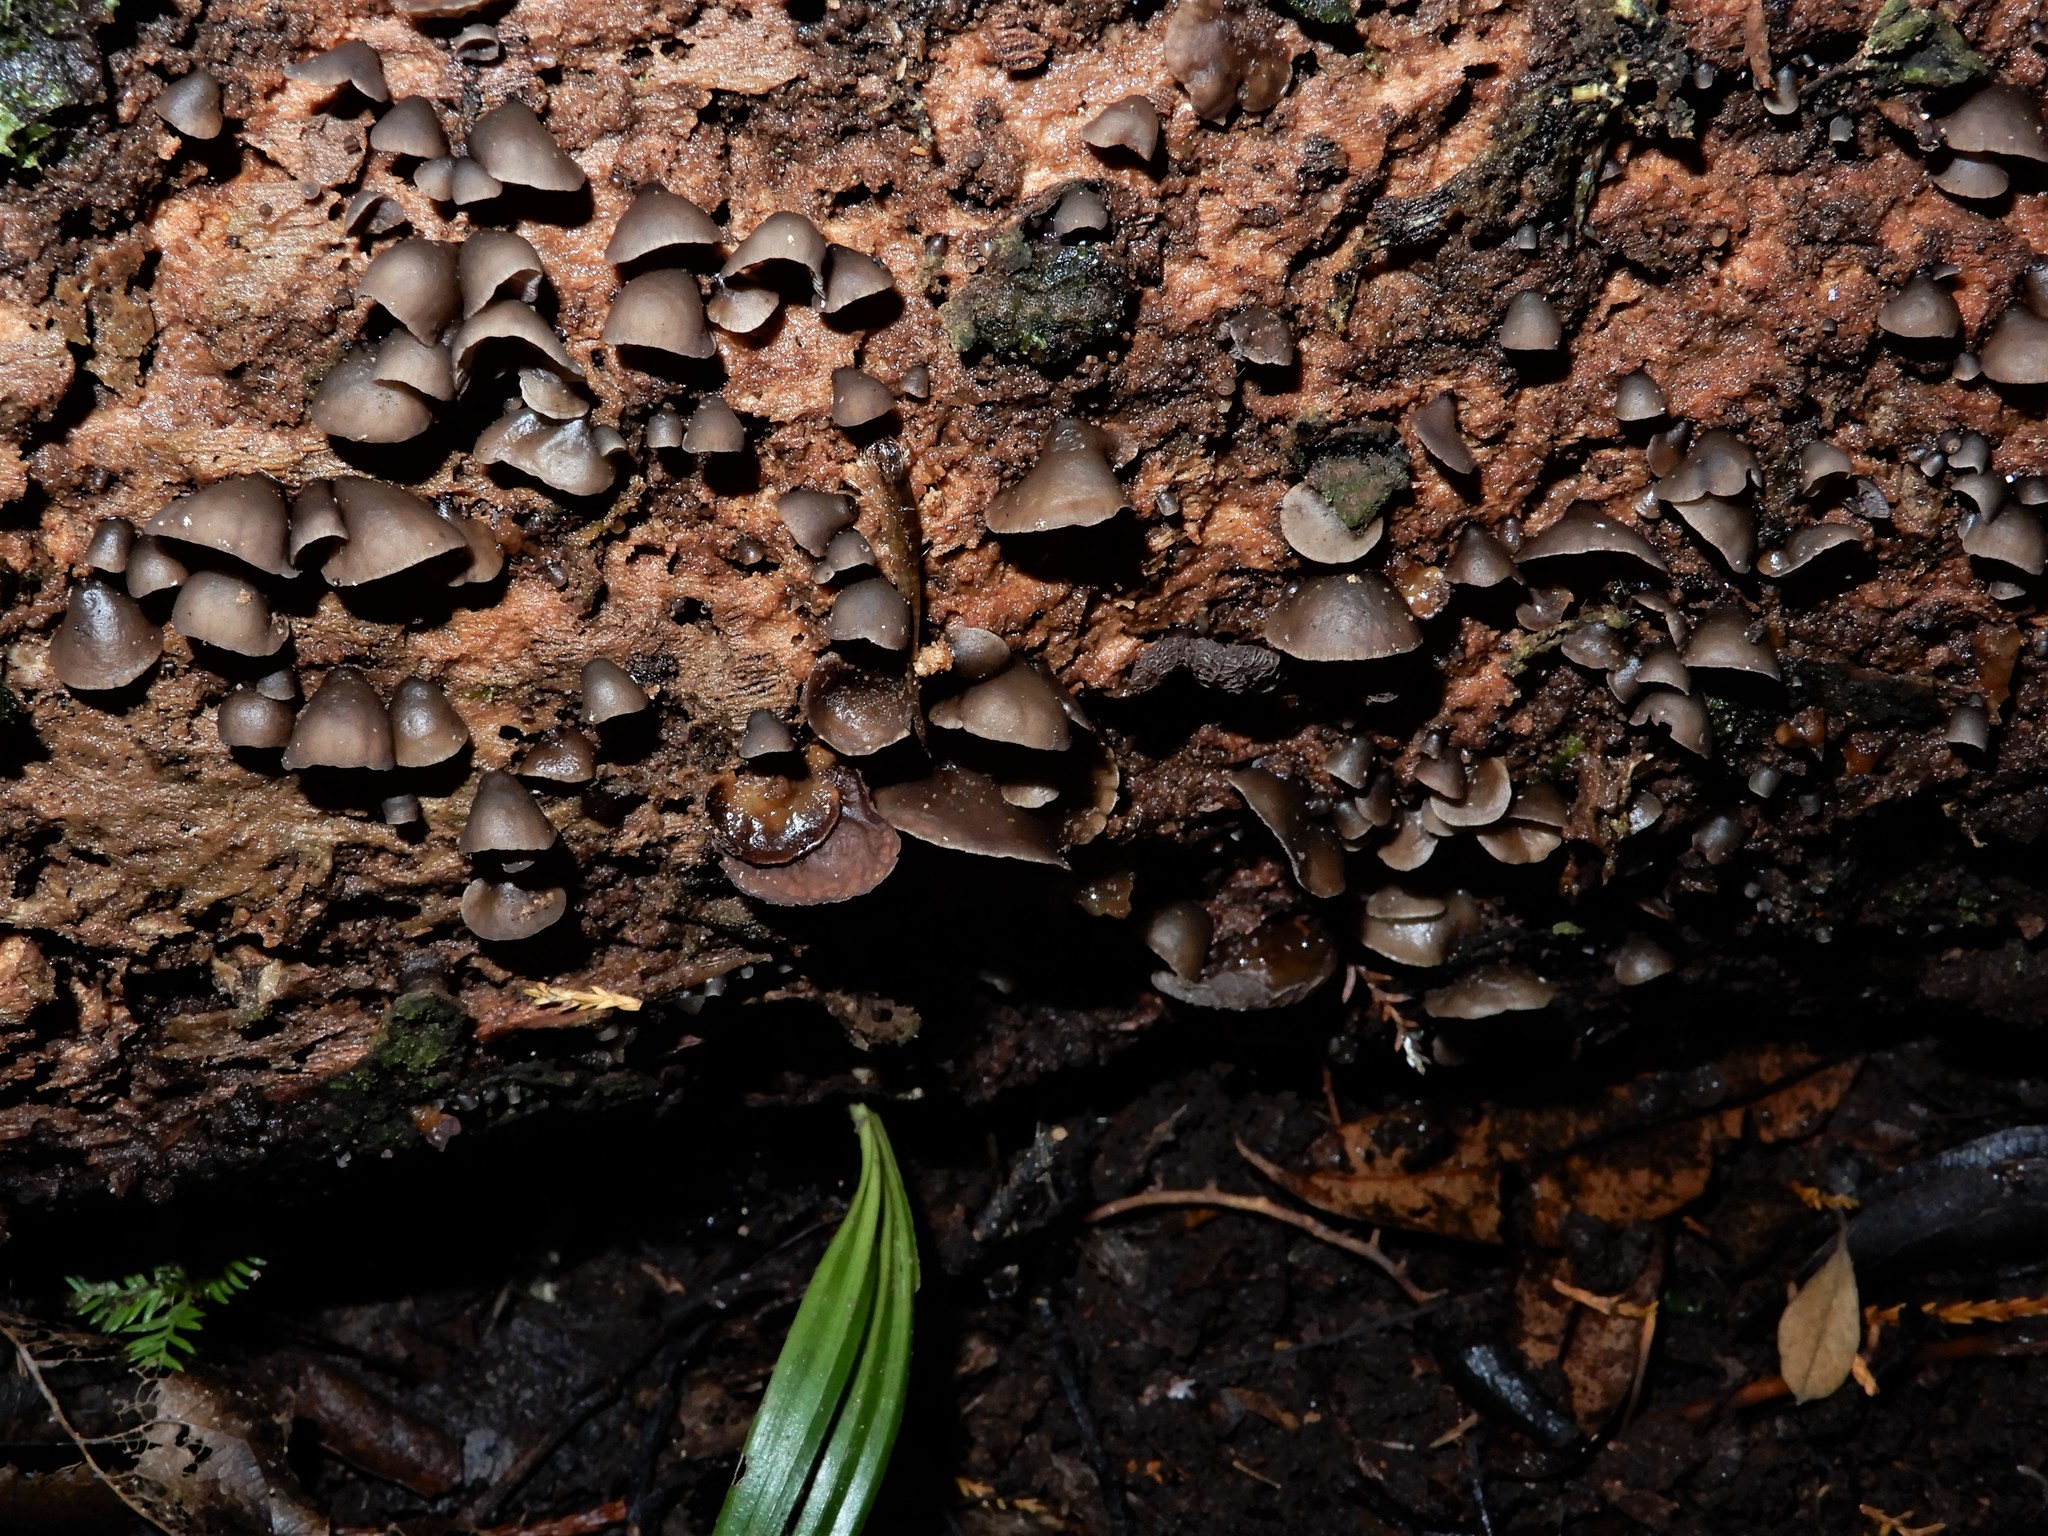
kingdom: Fungi
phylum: Basidiomycota
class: Agaricomycetes
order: Agaricales
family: Pleurotaceae
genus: Resupinatus
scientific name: Resupinatus merulioides
